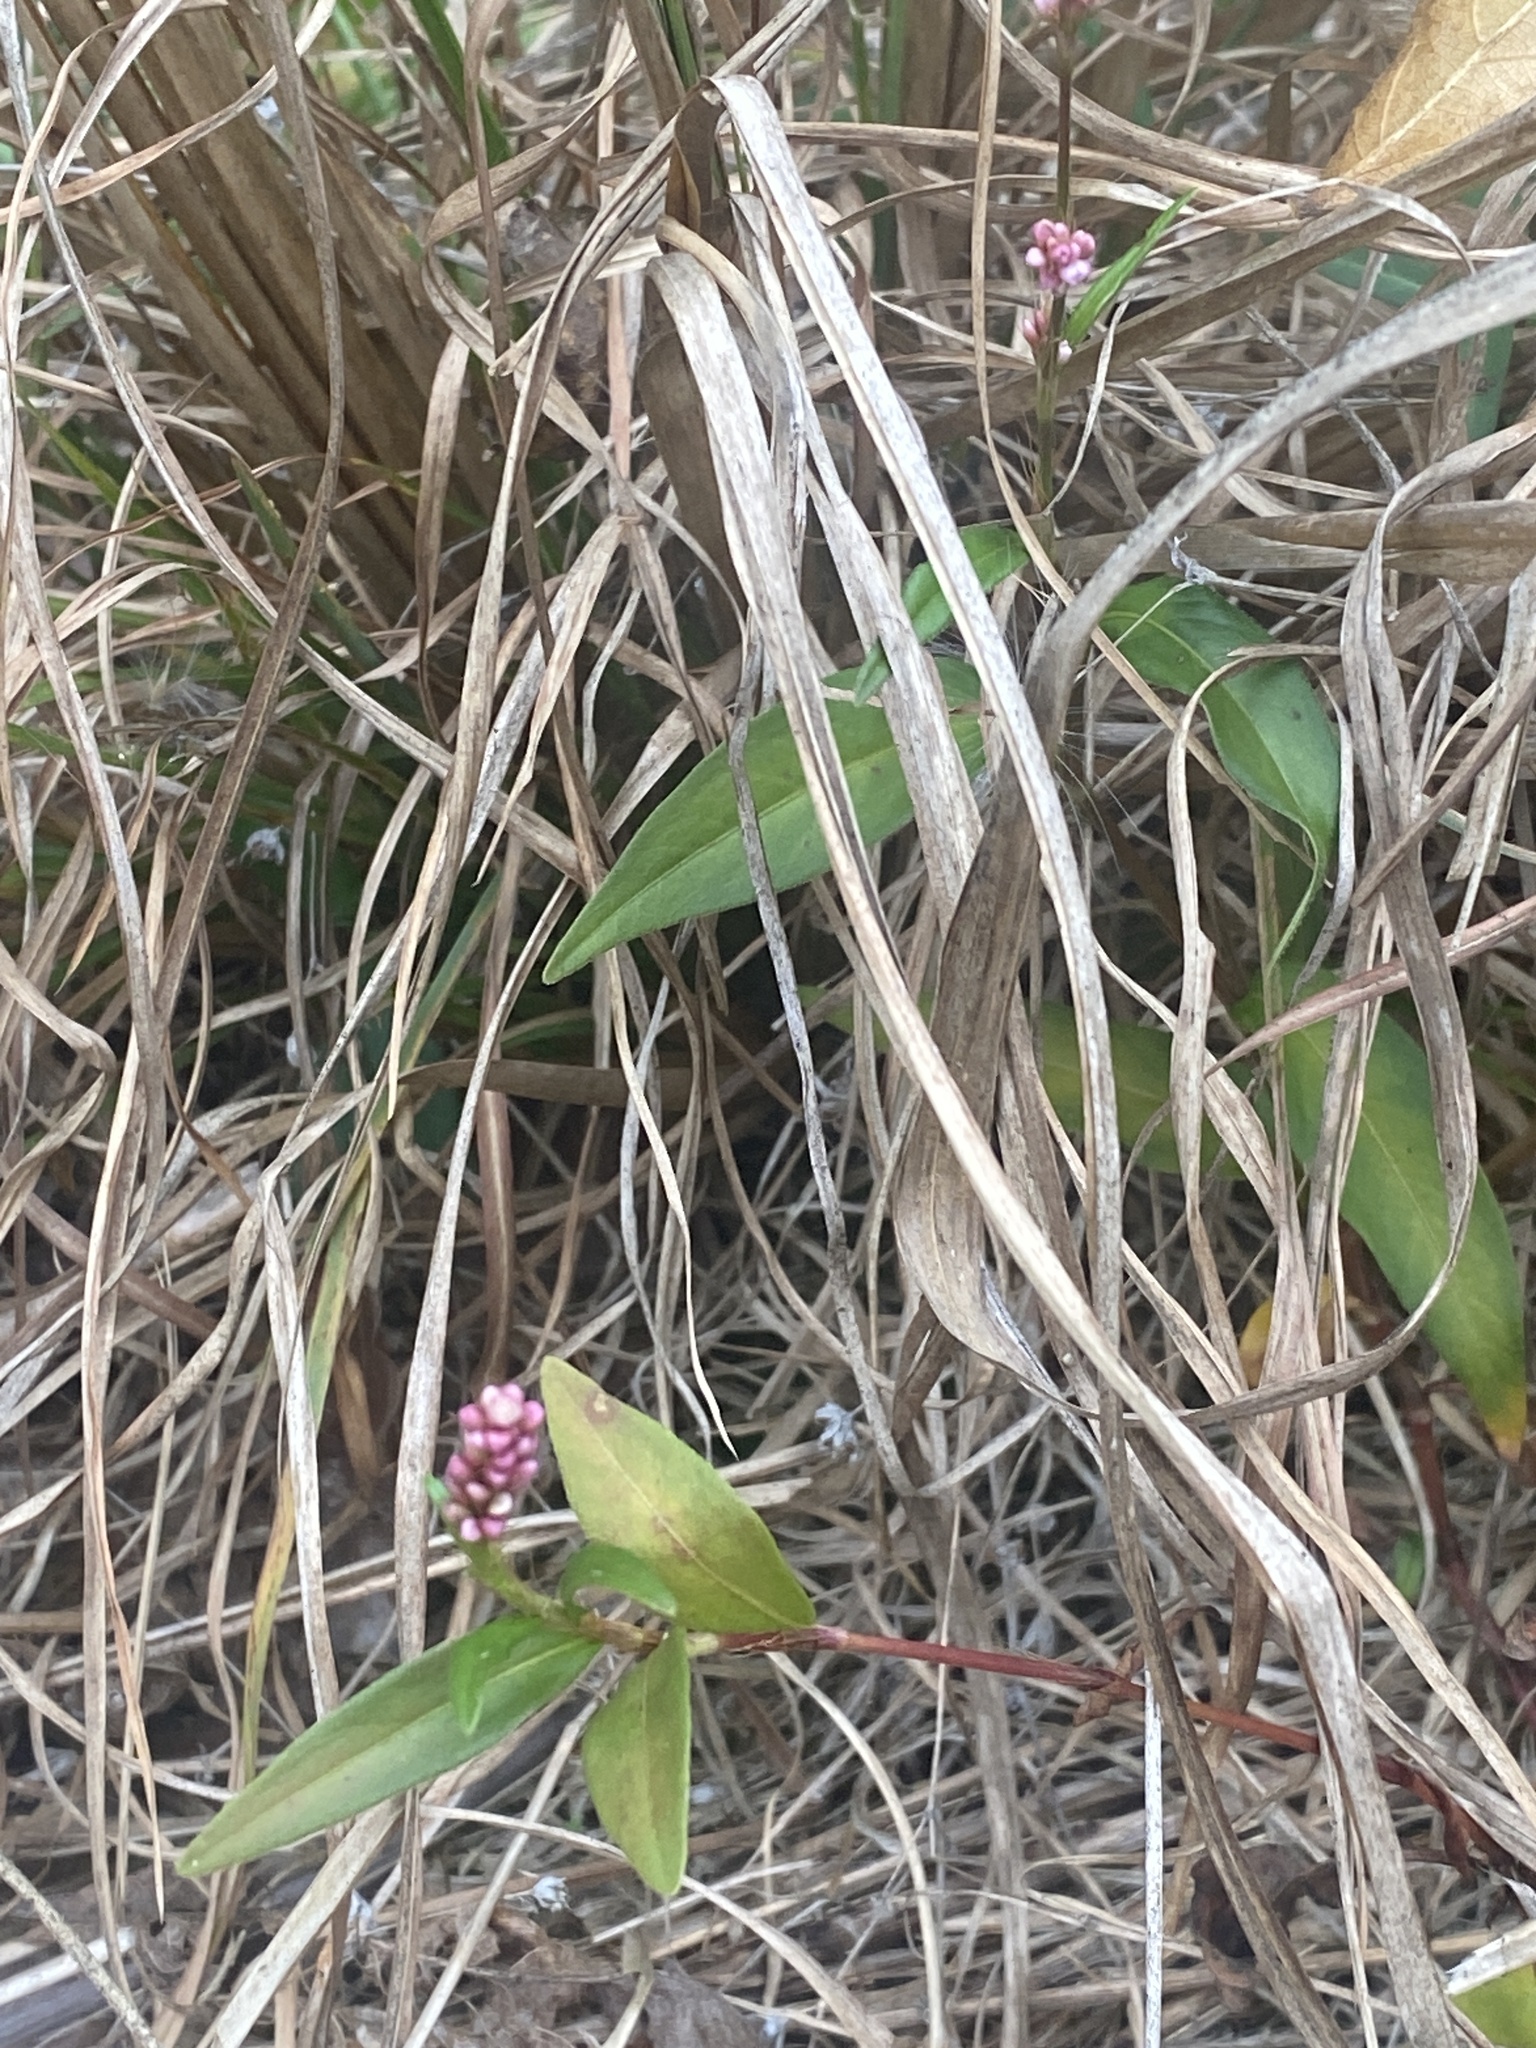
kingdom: Plantae
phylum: Tracheophyta
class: Magnoliopsida
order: Caryophyllales
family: Polygonaceae
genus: Persicaria
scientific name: Persicaria longiseta
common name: Bristly lady's-thumb
